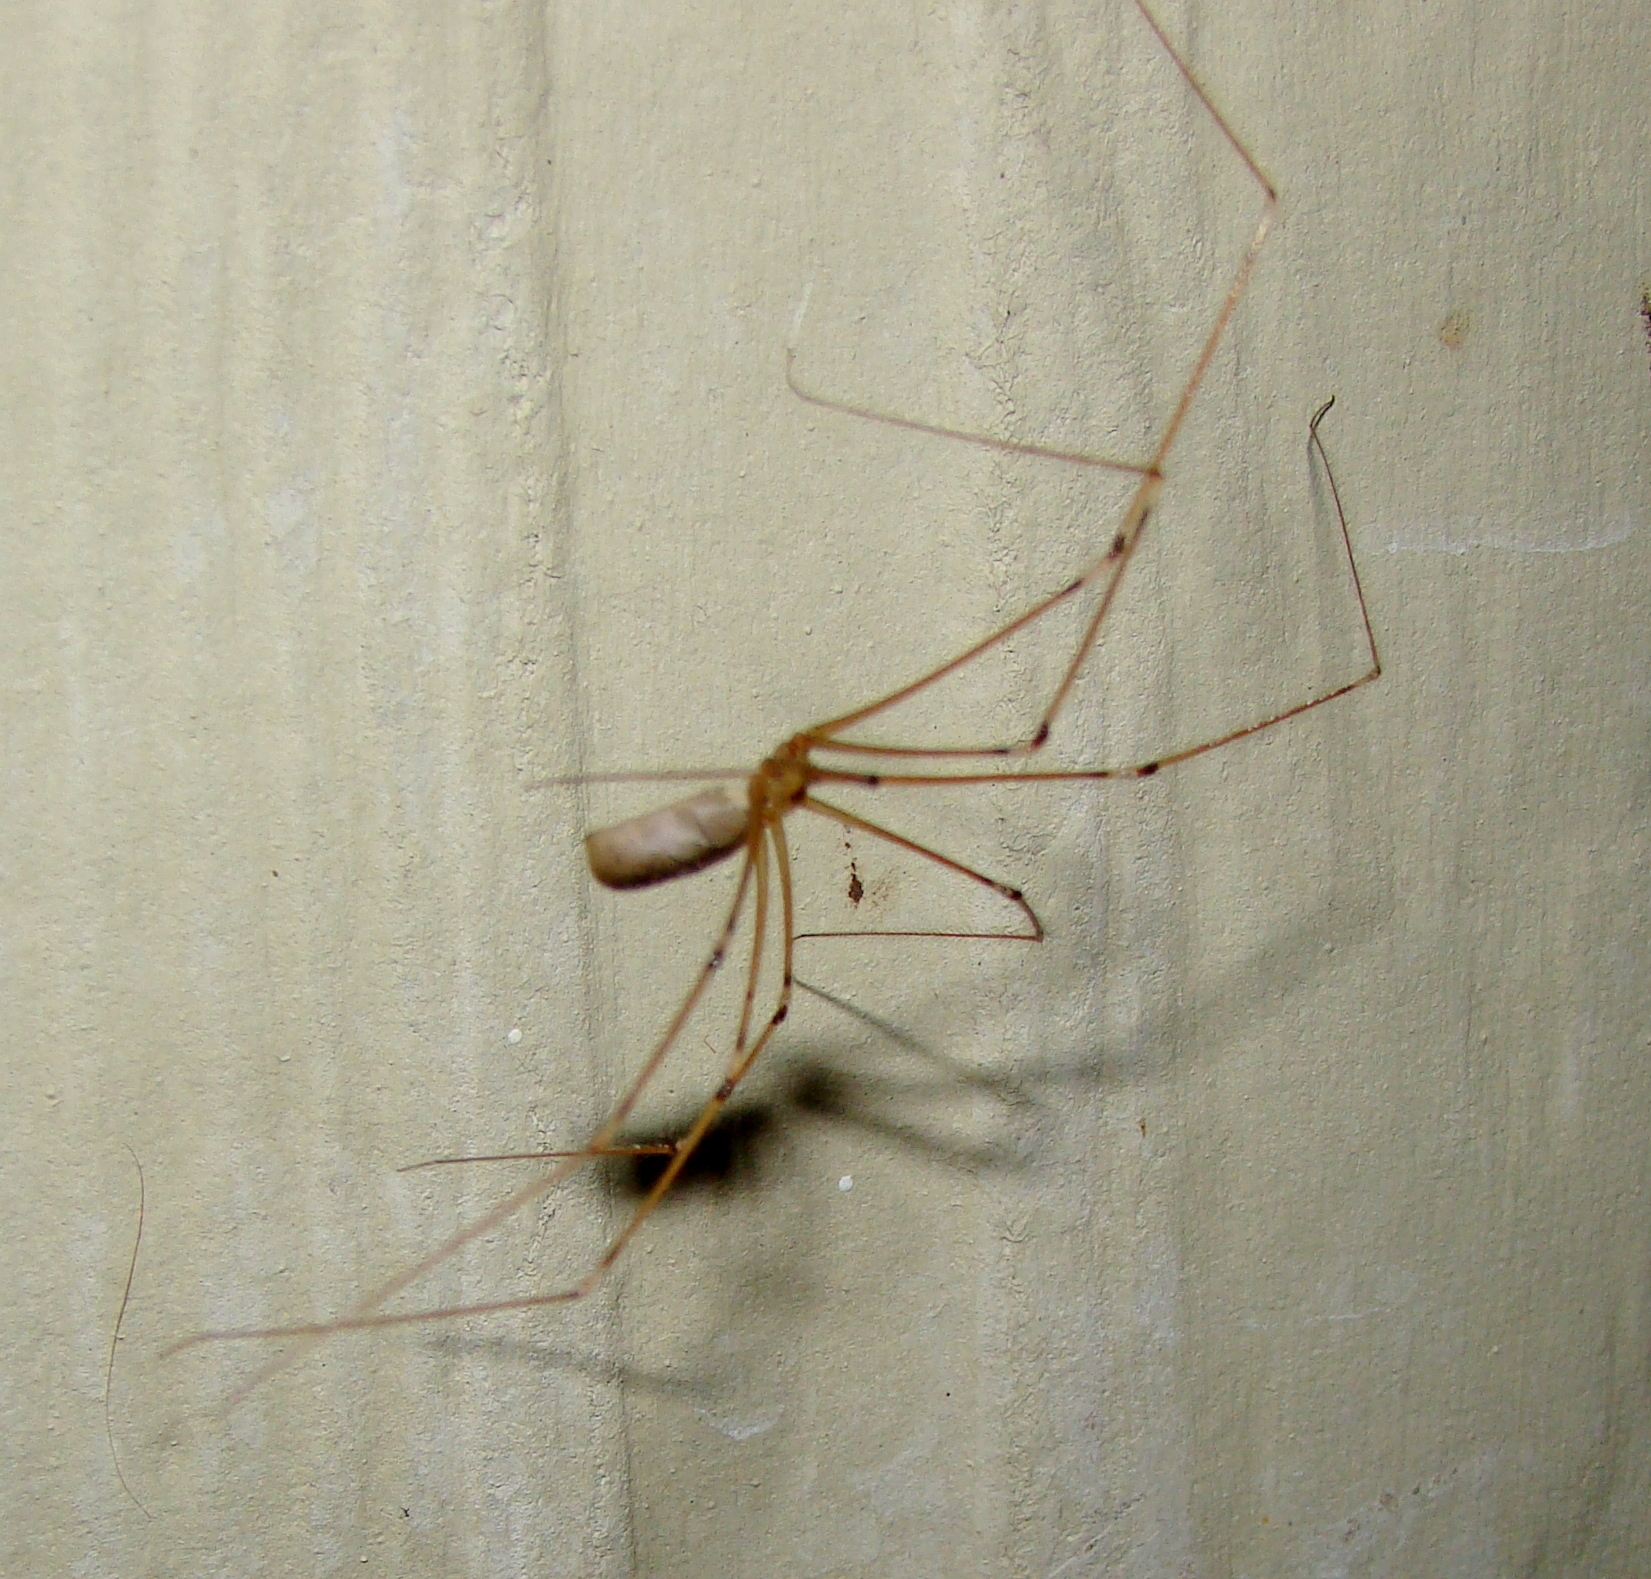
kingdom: Animalia
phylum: Arthropoda
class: Arachnida
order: Araneae
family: Pholcidae
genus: Pholcus
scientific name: Pholcus phalangioides
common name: Longbodied cellar spider
